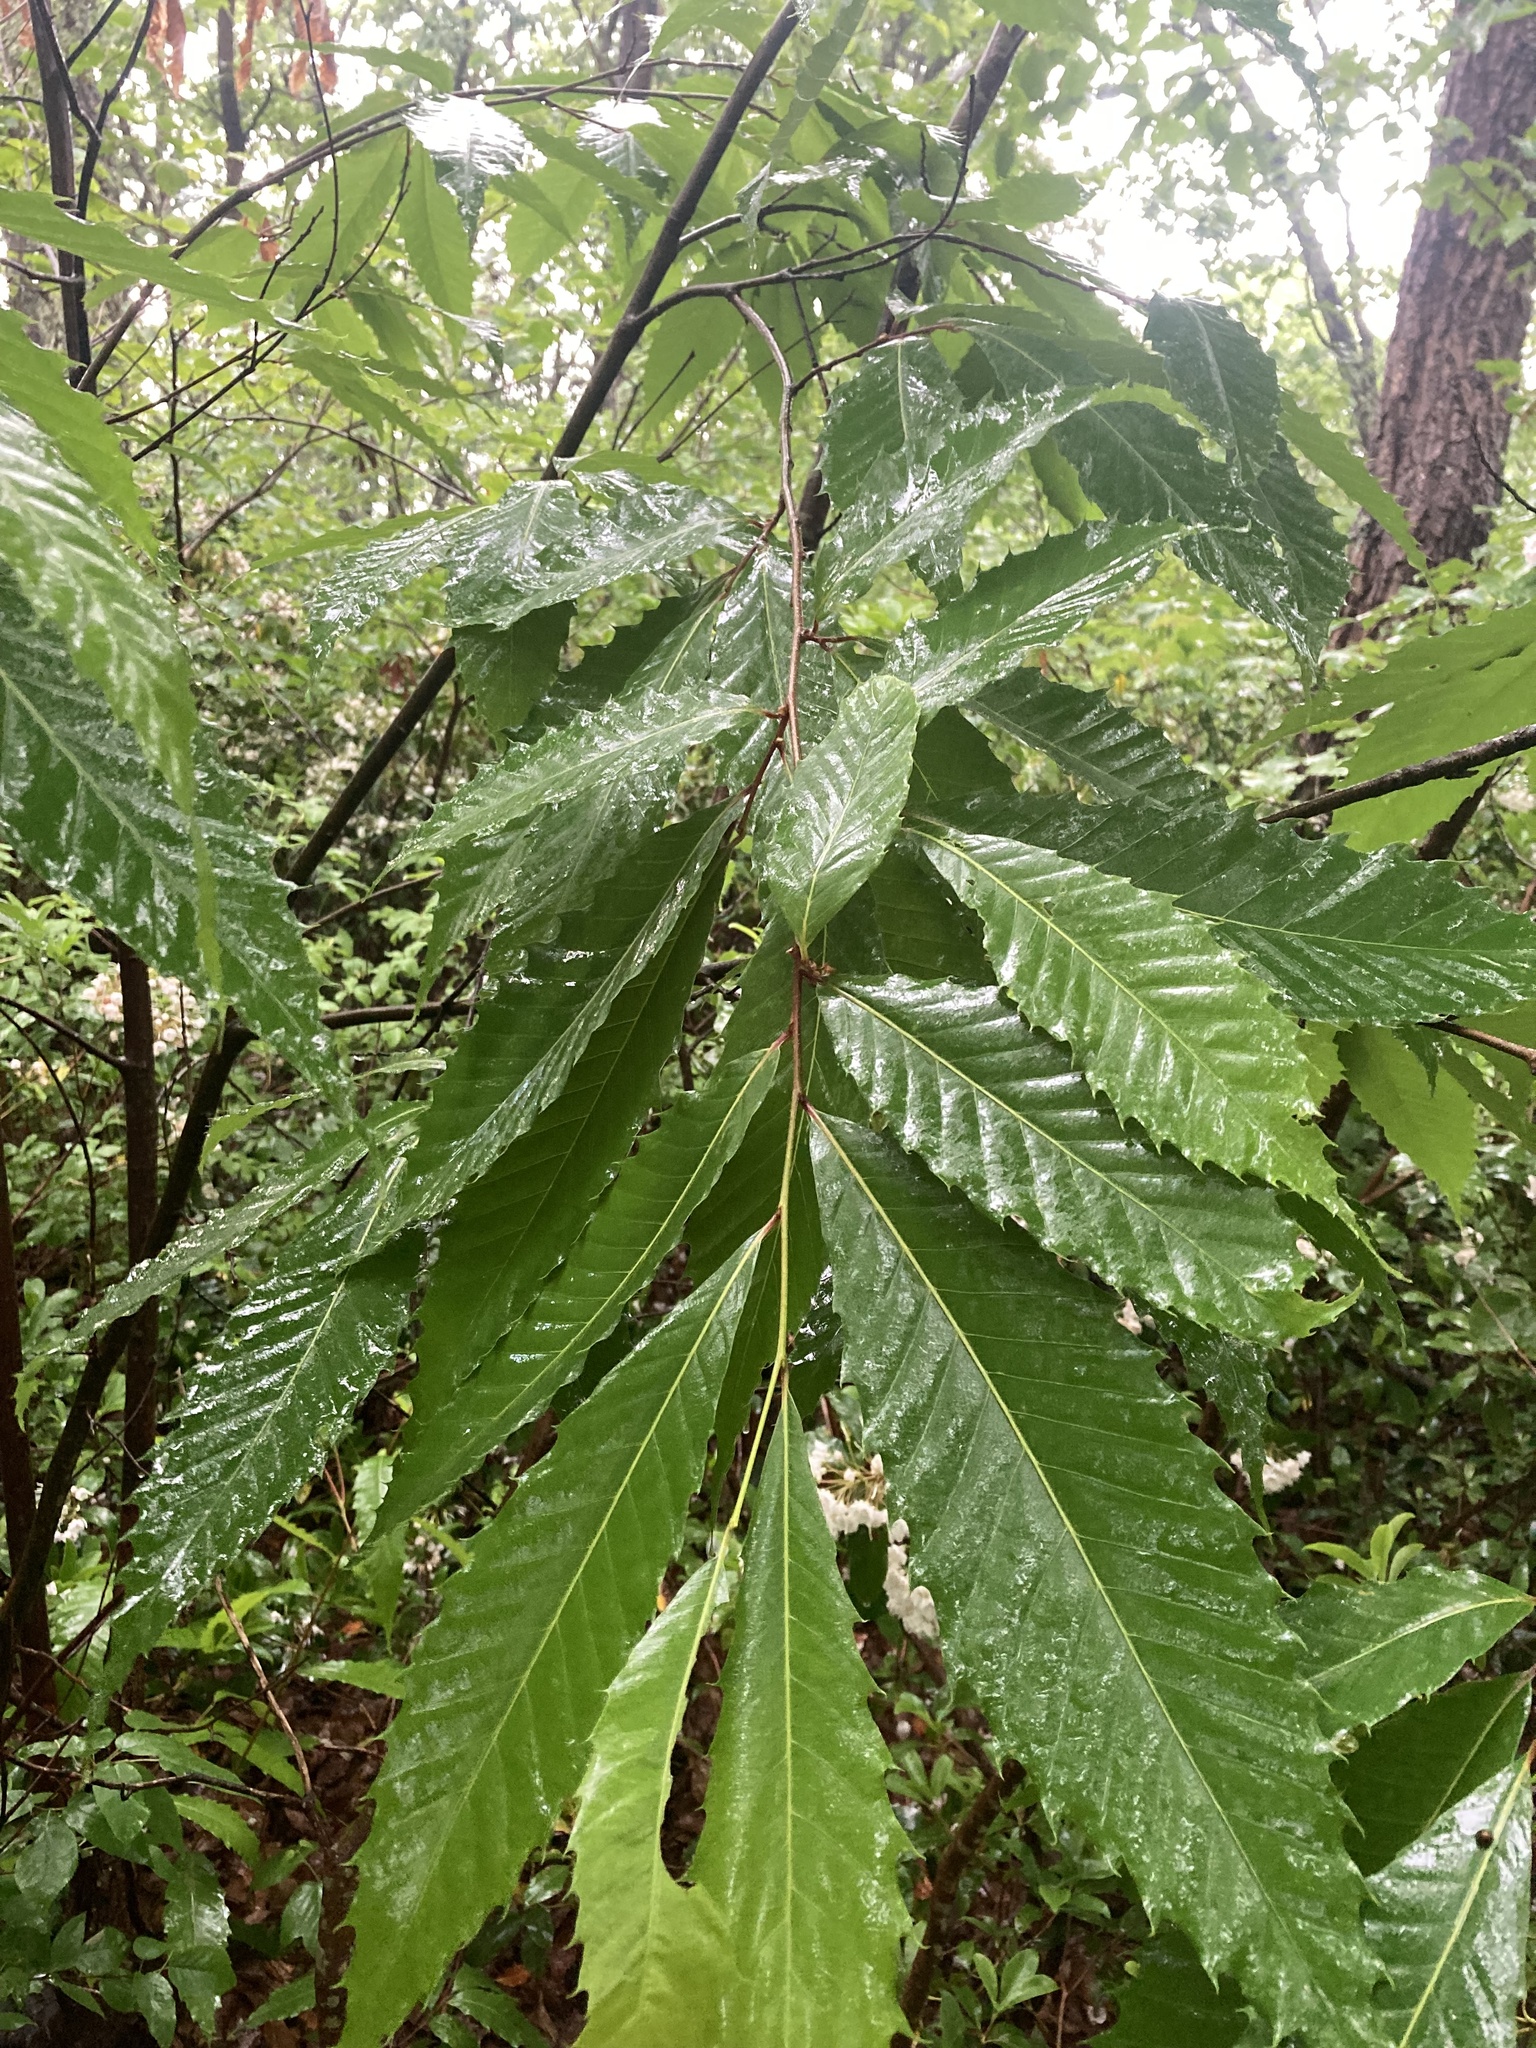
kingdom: Plantae
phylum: Tracheophyta
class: Magnoliopsida
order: Fagales
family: Fagaceae
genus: Castanea
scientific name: Castanea dentata
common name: American chestnut
